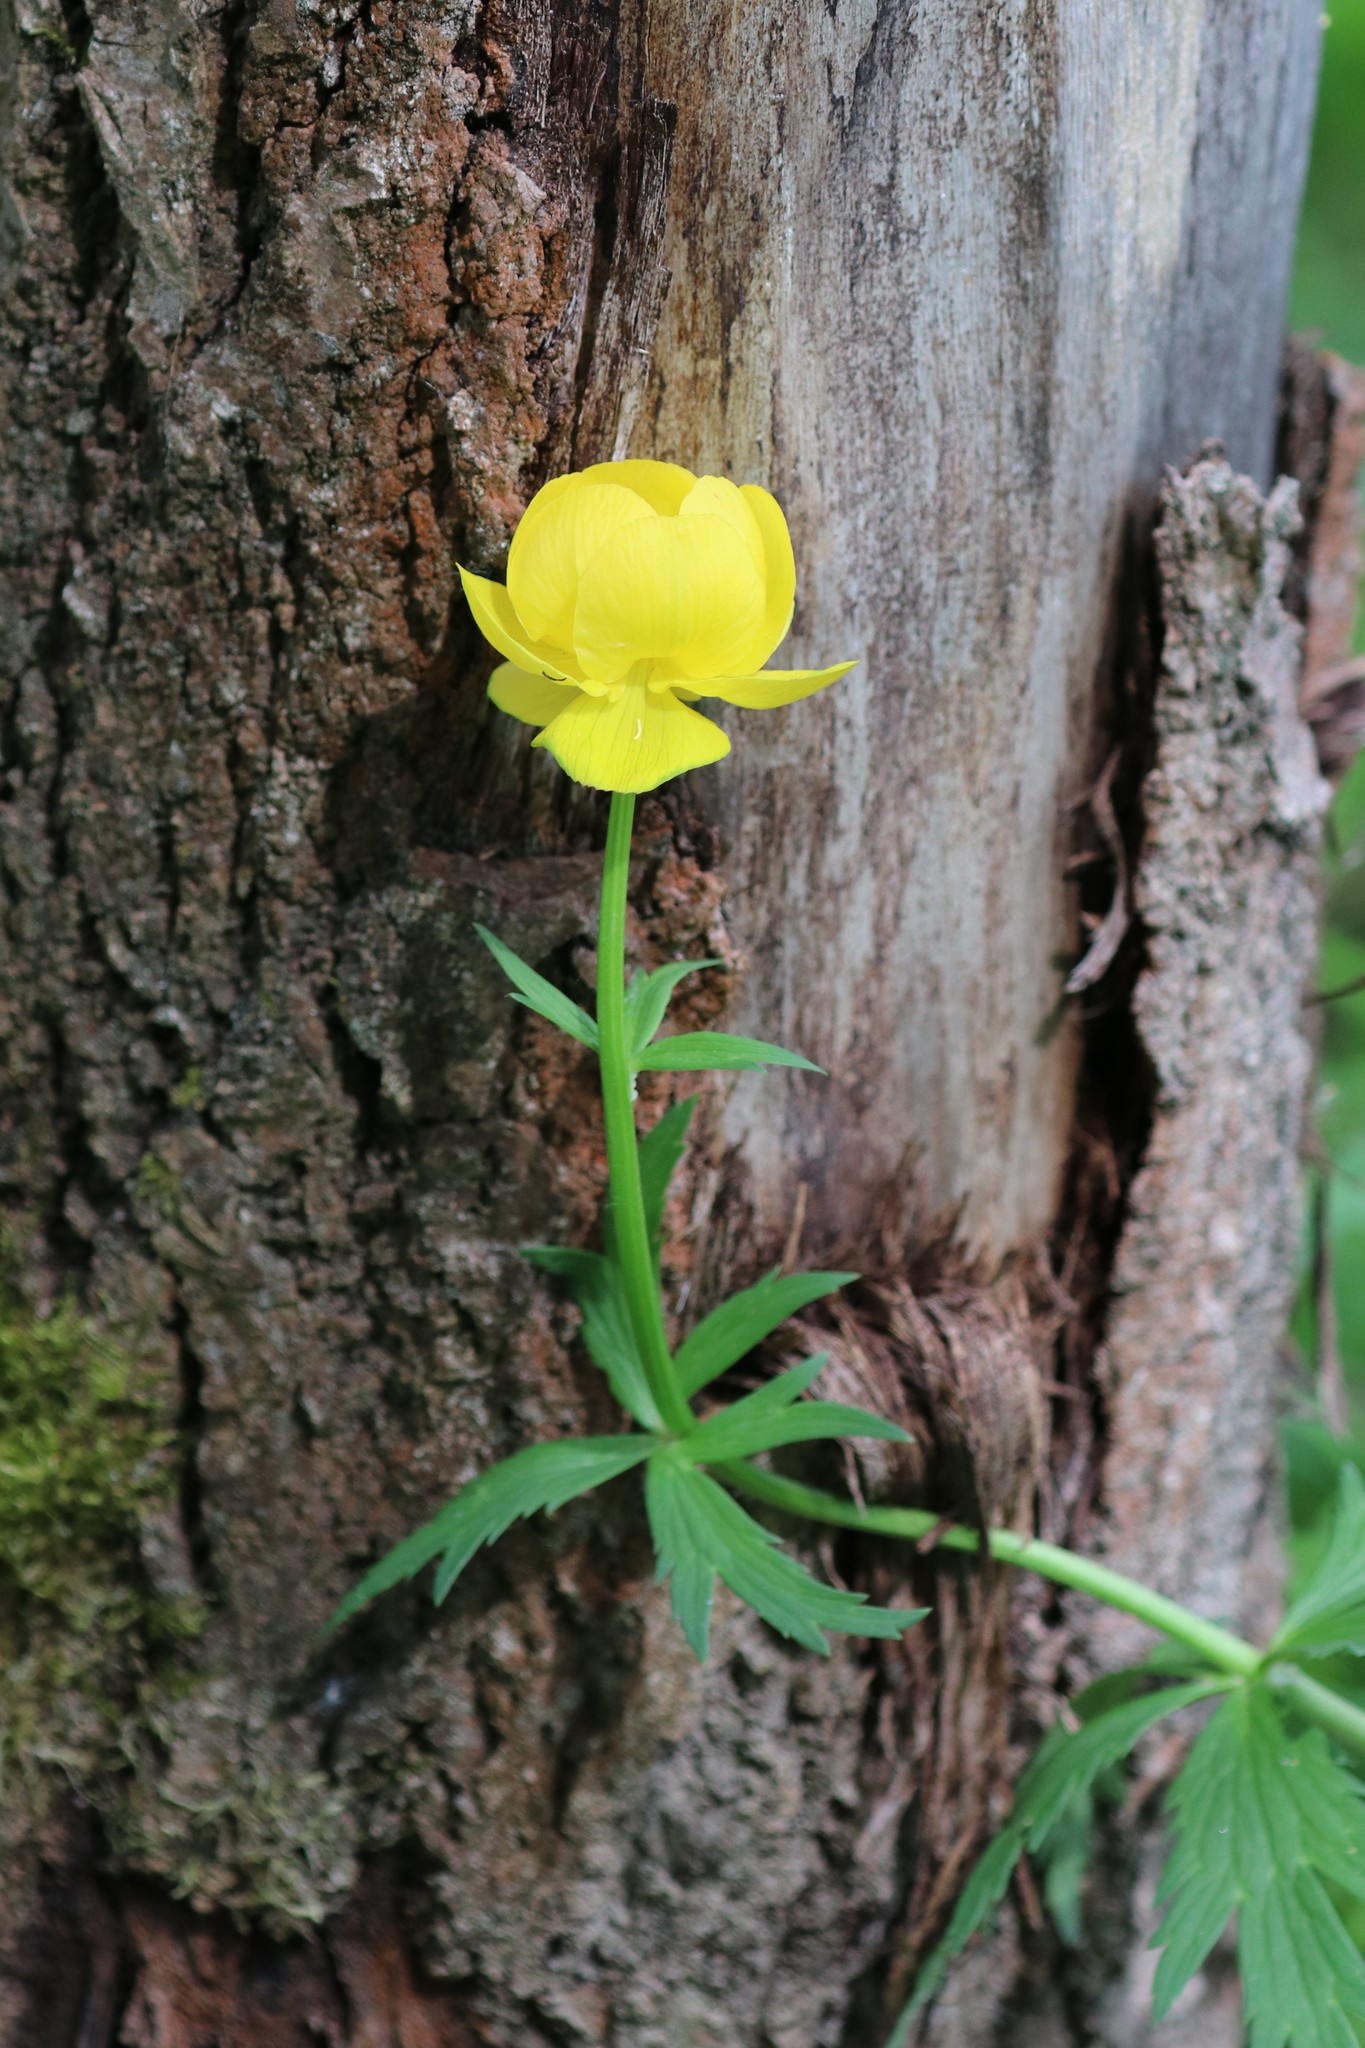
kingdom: Plantae
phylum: Tracheophyta
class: Magnoliopsida
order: Ranunculales
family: Ranunculaceae
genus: Trollius
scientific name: Trollius europaeus
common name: European globeflower
